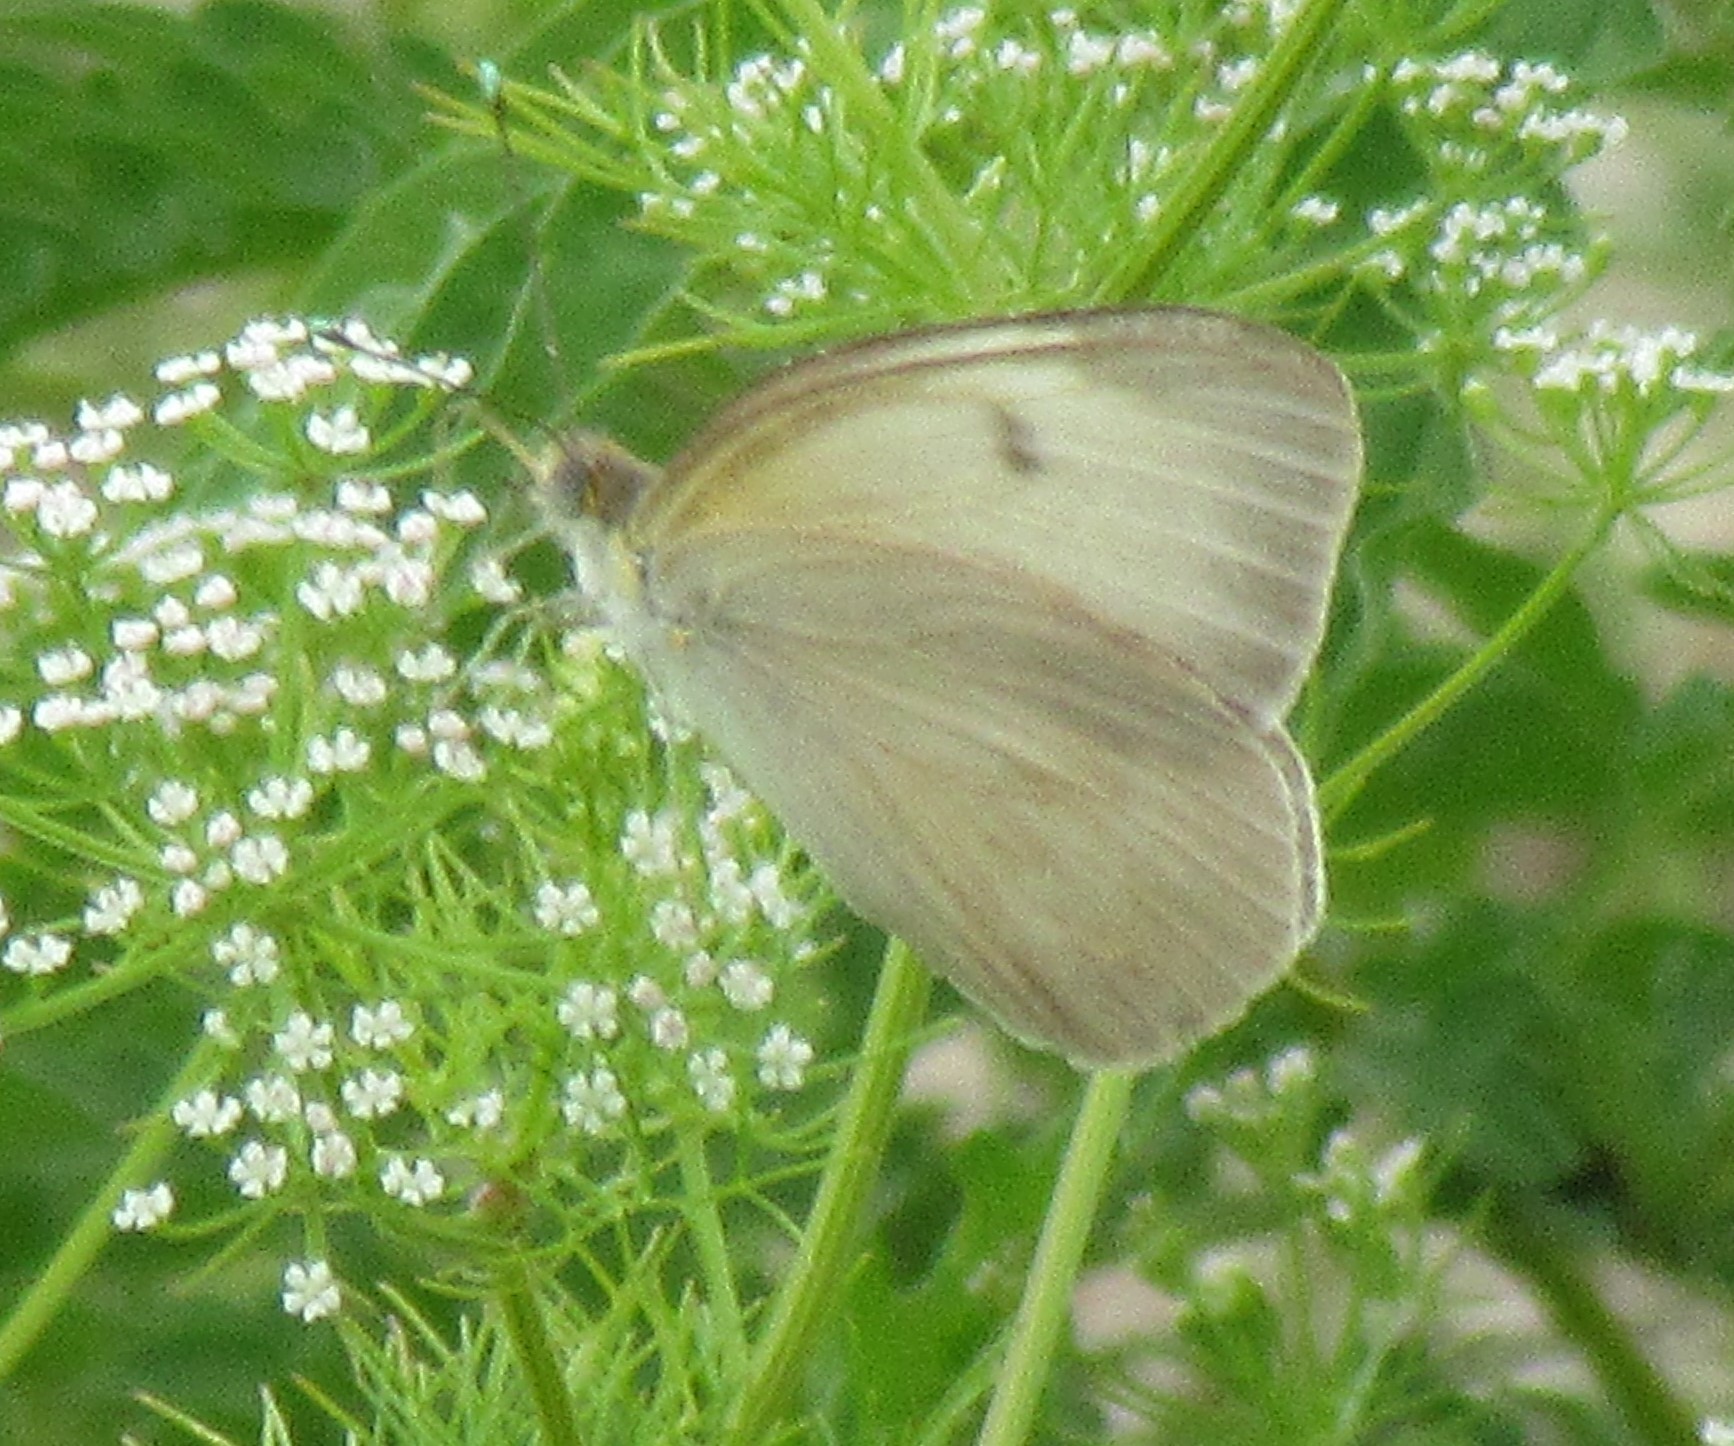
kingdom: Animalia
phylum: Arthropoda
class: Insecta
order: Lepidoptera
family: Pieridae
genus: Ascia
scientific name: Ascia monuste
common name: Great southern white
